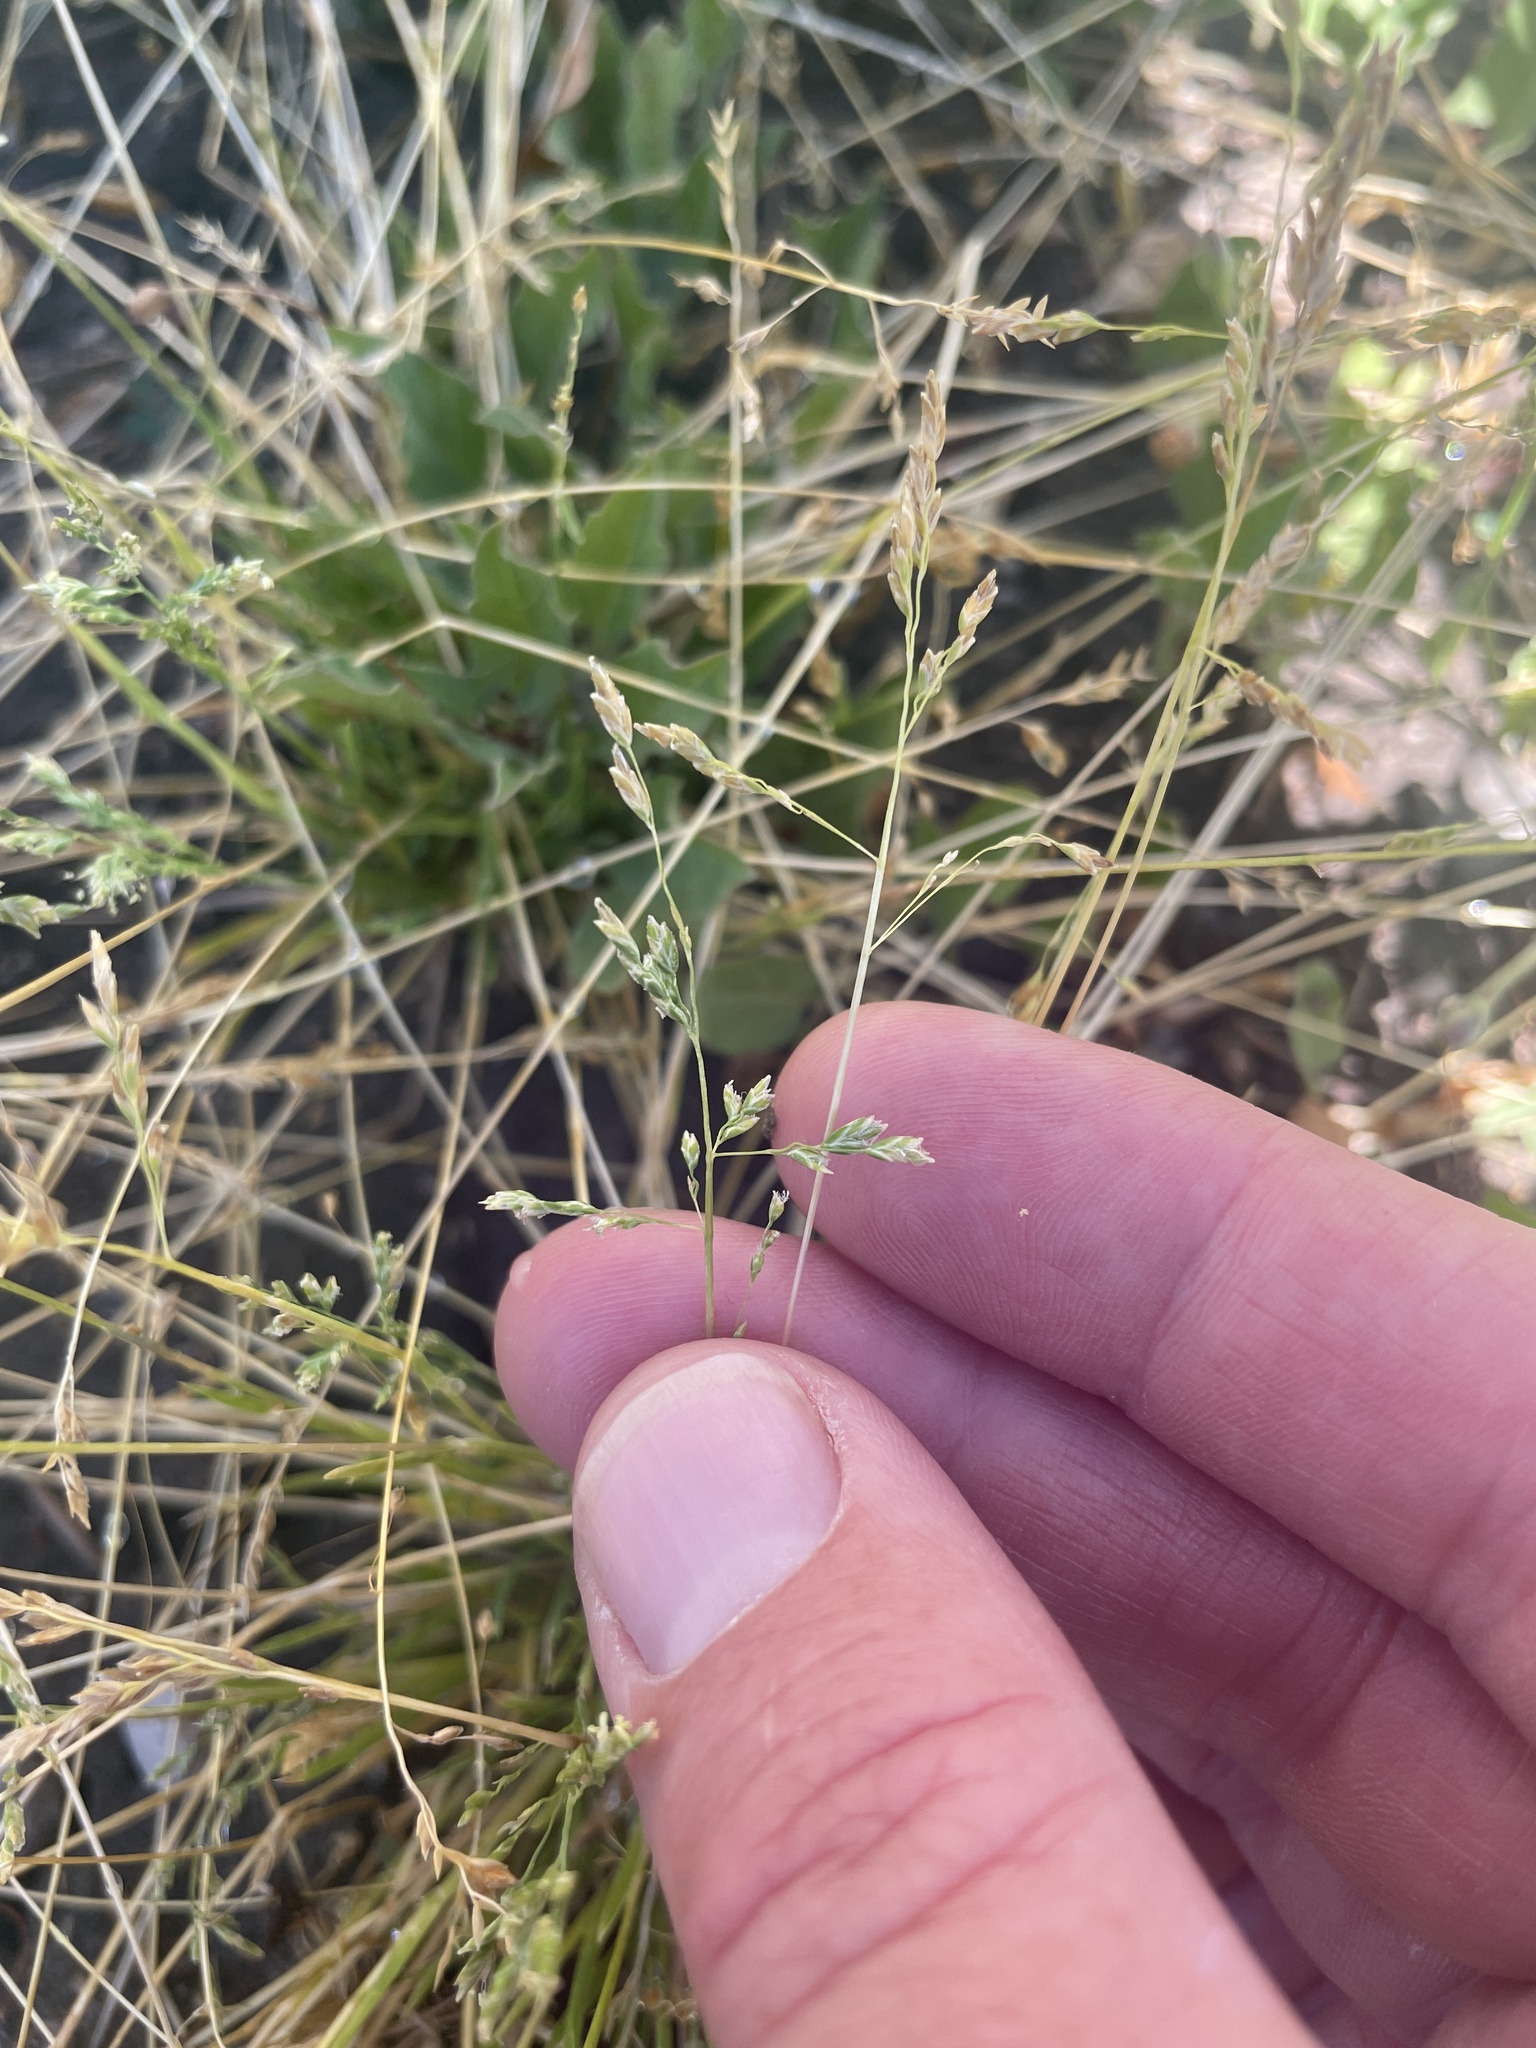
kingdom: Plantae
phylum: Tracheophyta
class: Liliopsida
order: Poales
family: Poaceae
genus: Poa
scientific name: Poa annua
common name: Annual bluegrass
